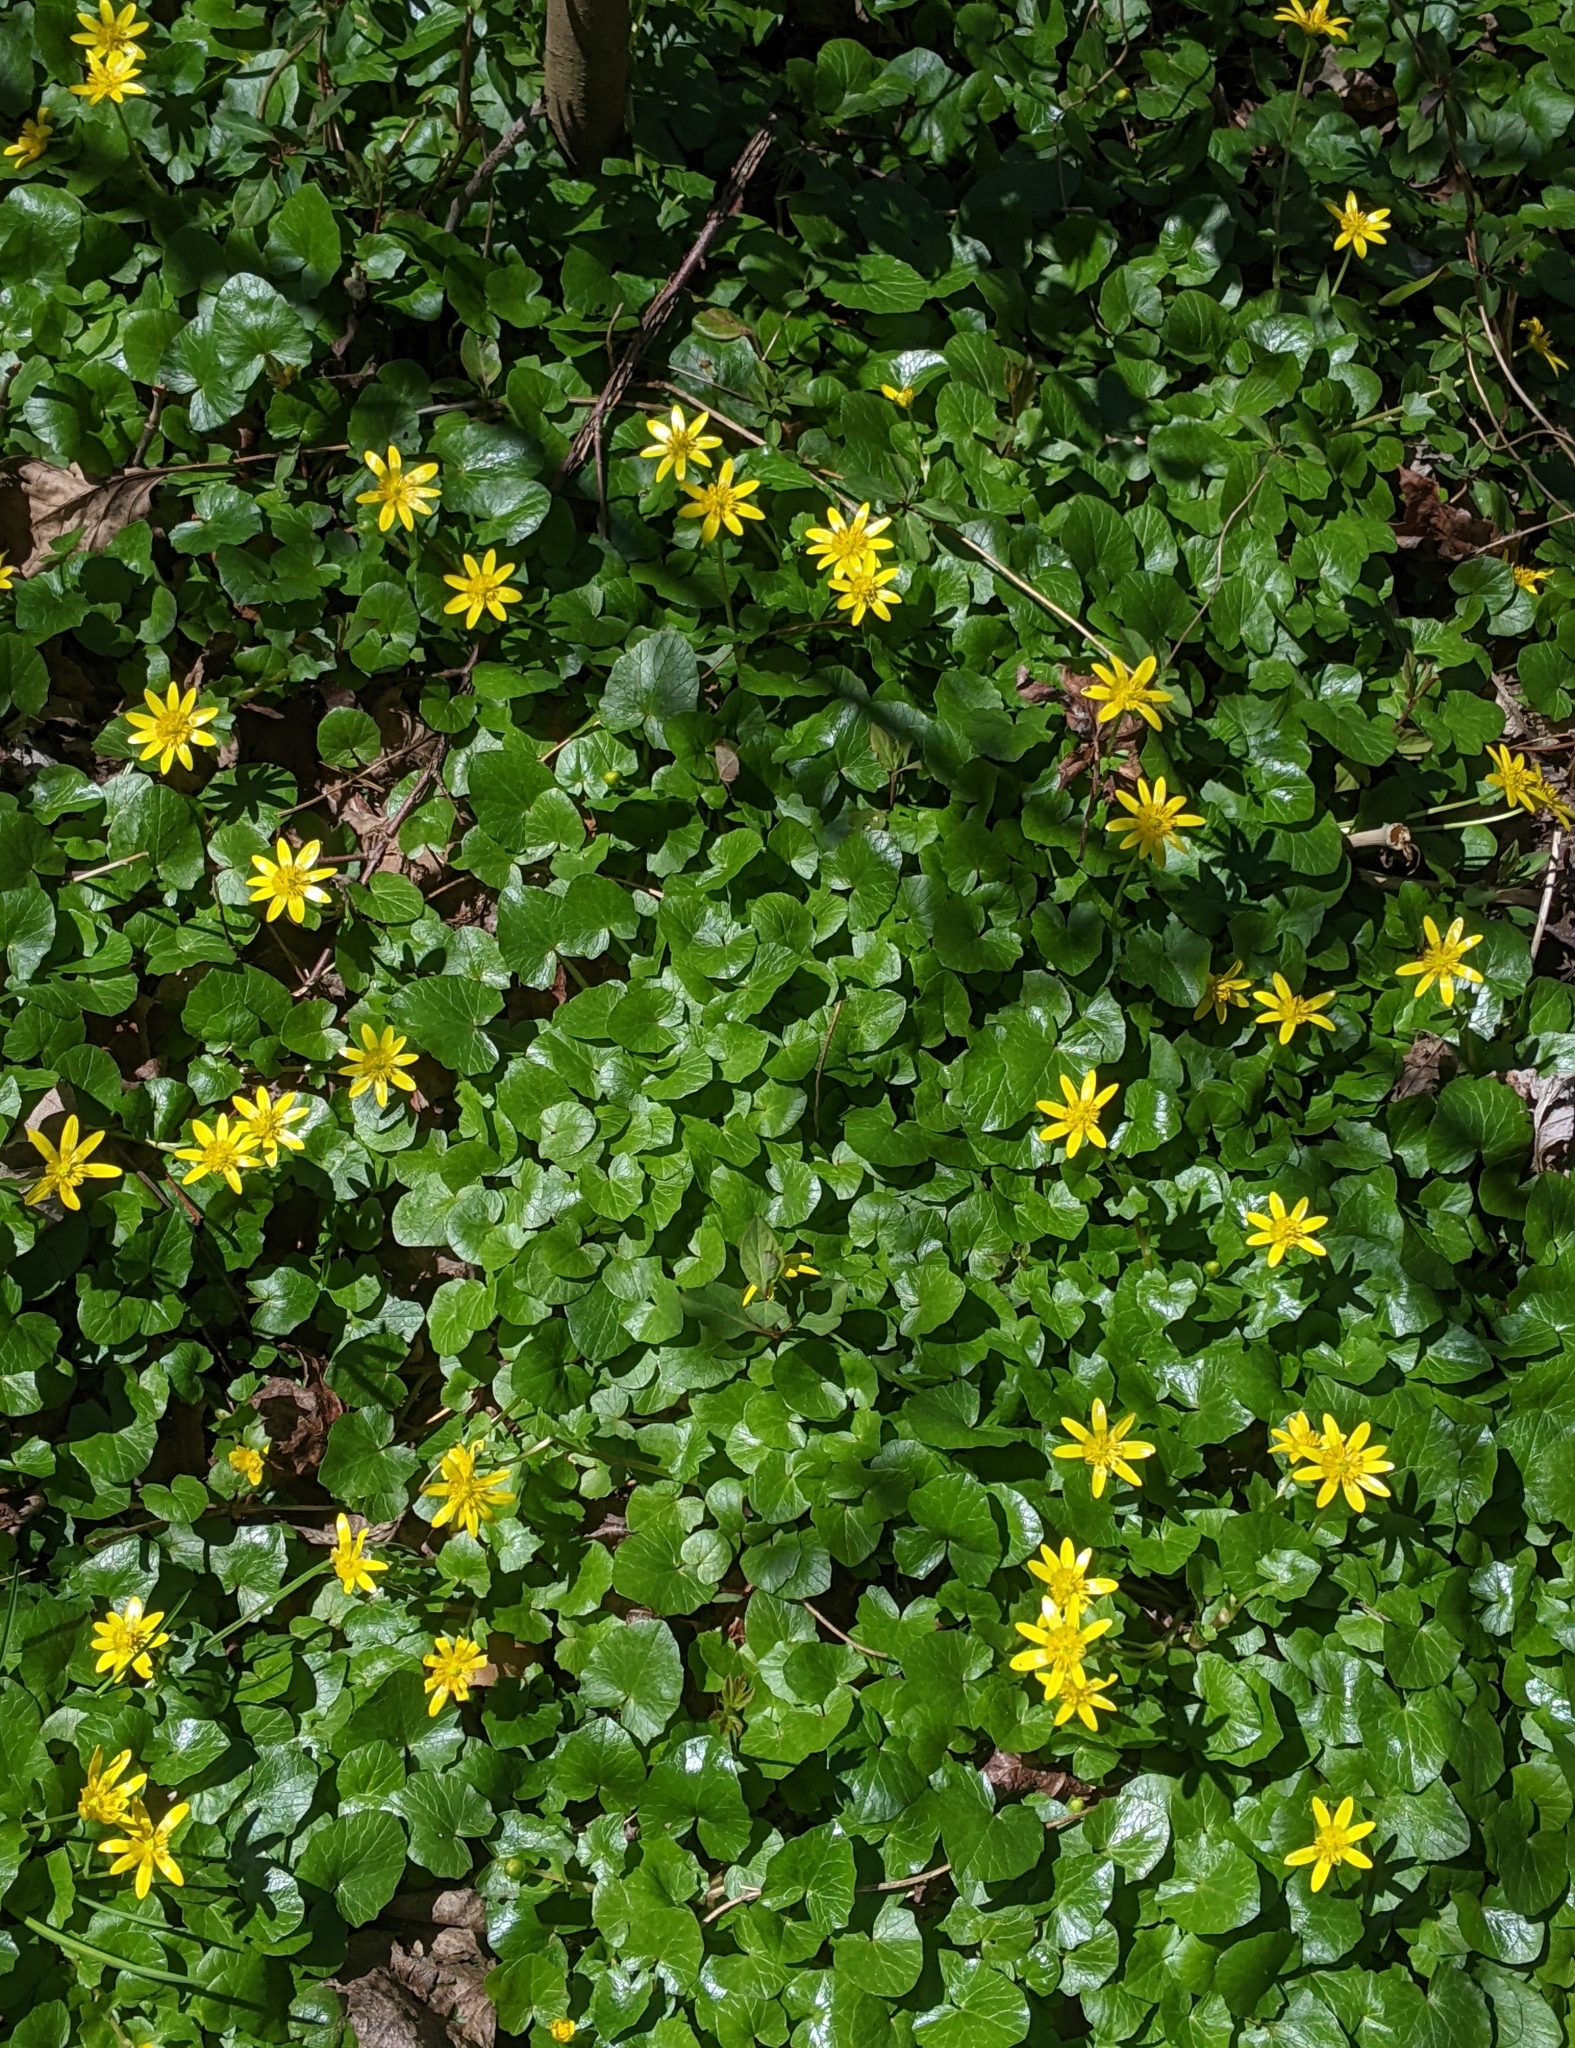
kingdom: Plantae
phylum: Tracheophyta
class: Magnoliopsida
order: Ranunculales
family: Ranunculaceae
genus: Ficaria
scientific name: Ficaria verna
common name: Lesser celandine
